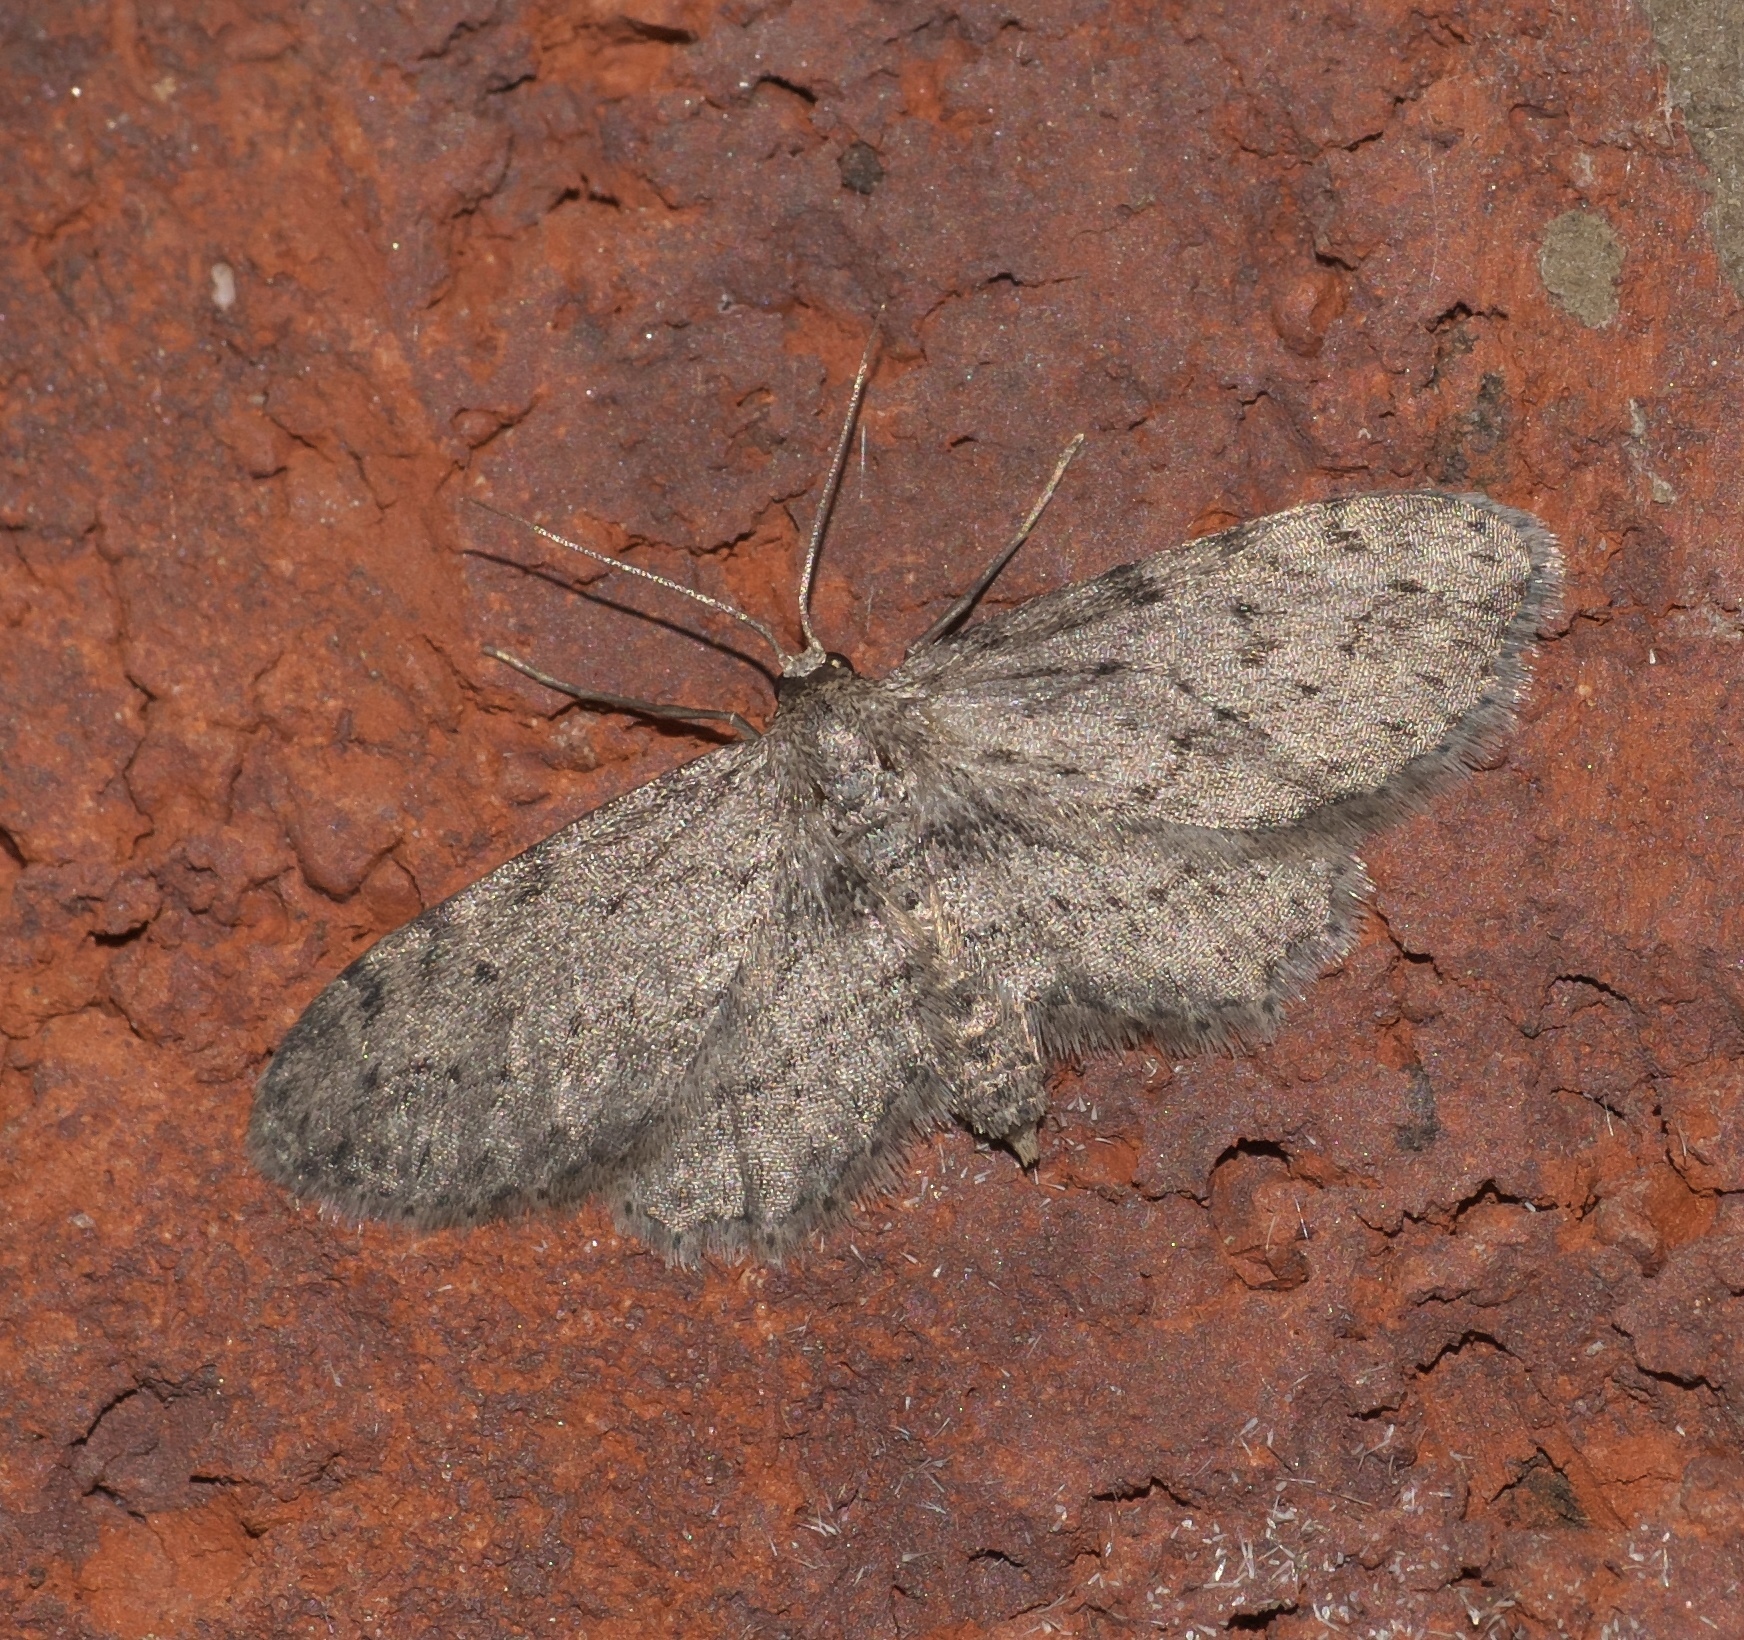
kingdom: Animalia
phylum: Arthropoda
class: Insecta
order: Lepidoptera
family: Geometridae
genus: Pimaphera
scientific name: Pimaphera sparsaria
